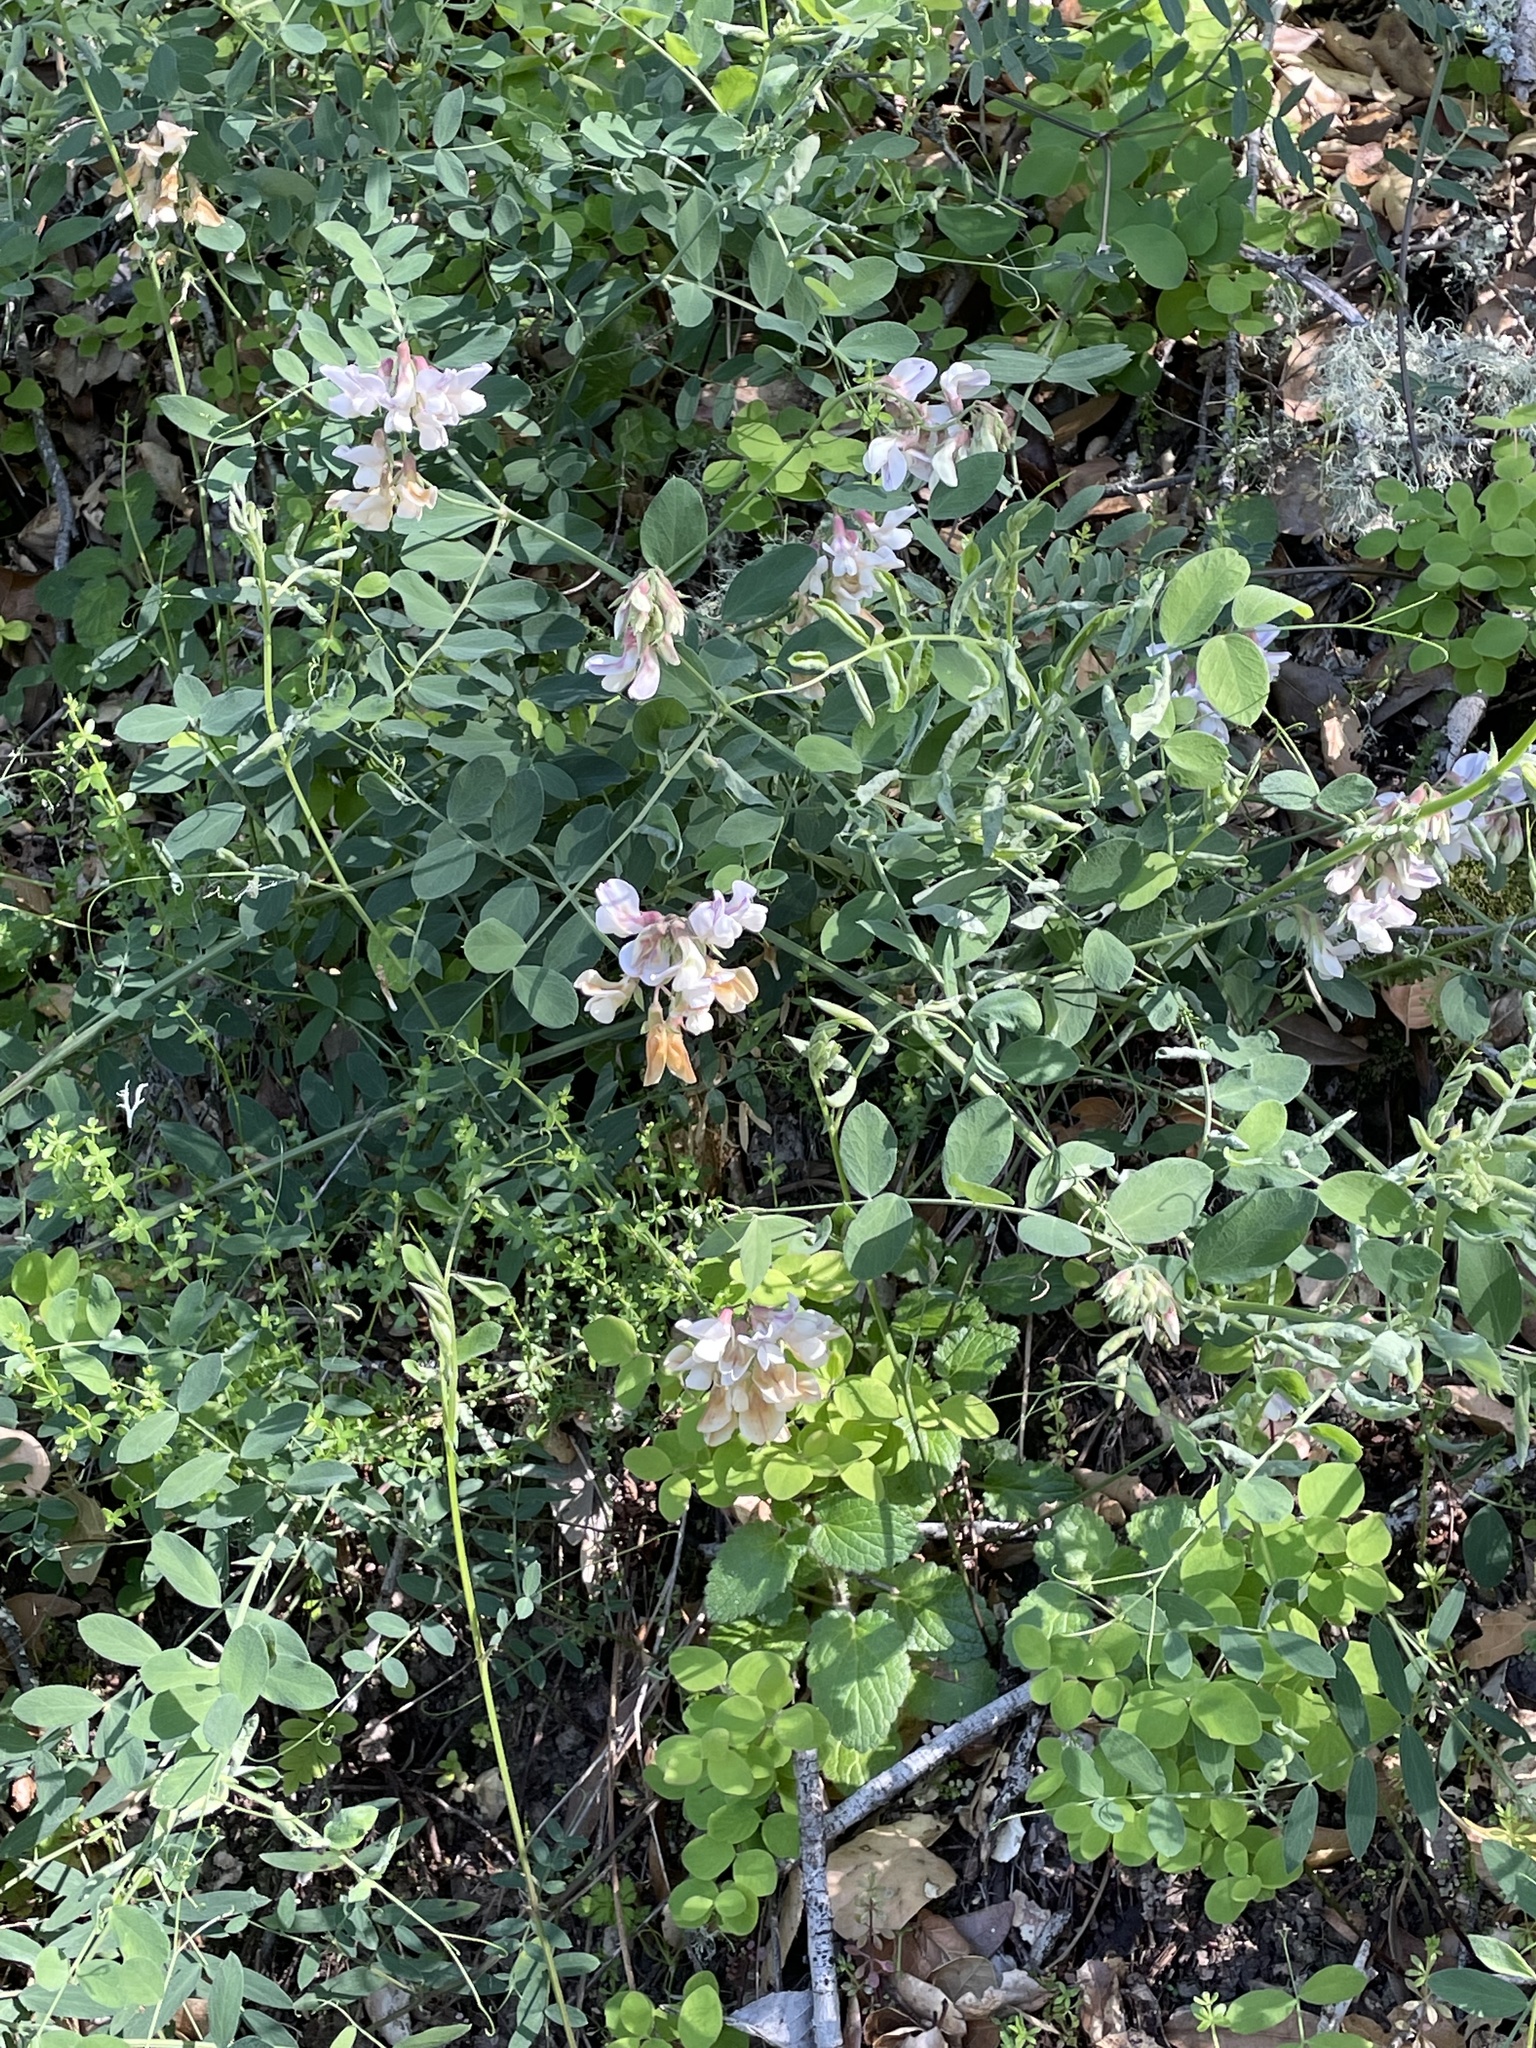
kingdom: Plantae
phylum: Tracheophyta
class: Magnoliopsida
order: Fabales
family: Fabaceae
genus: Lathyrus
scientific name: Lathyrus vestitus
